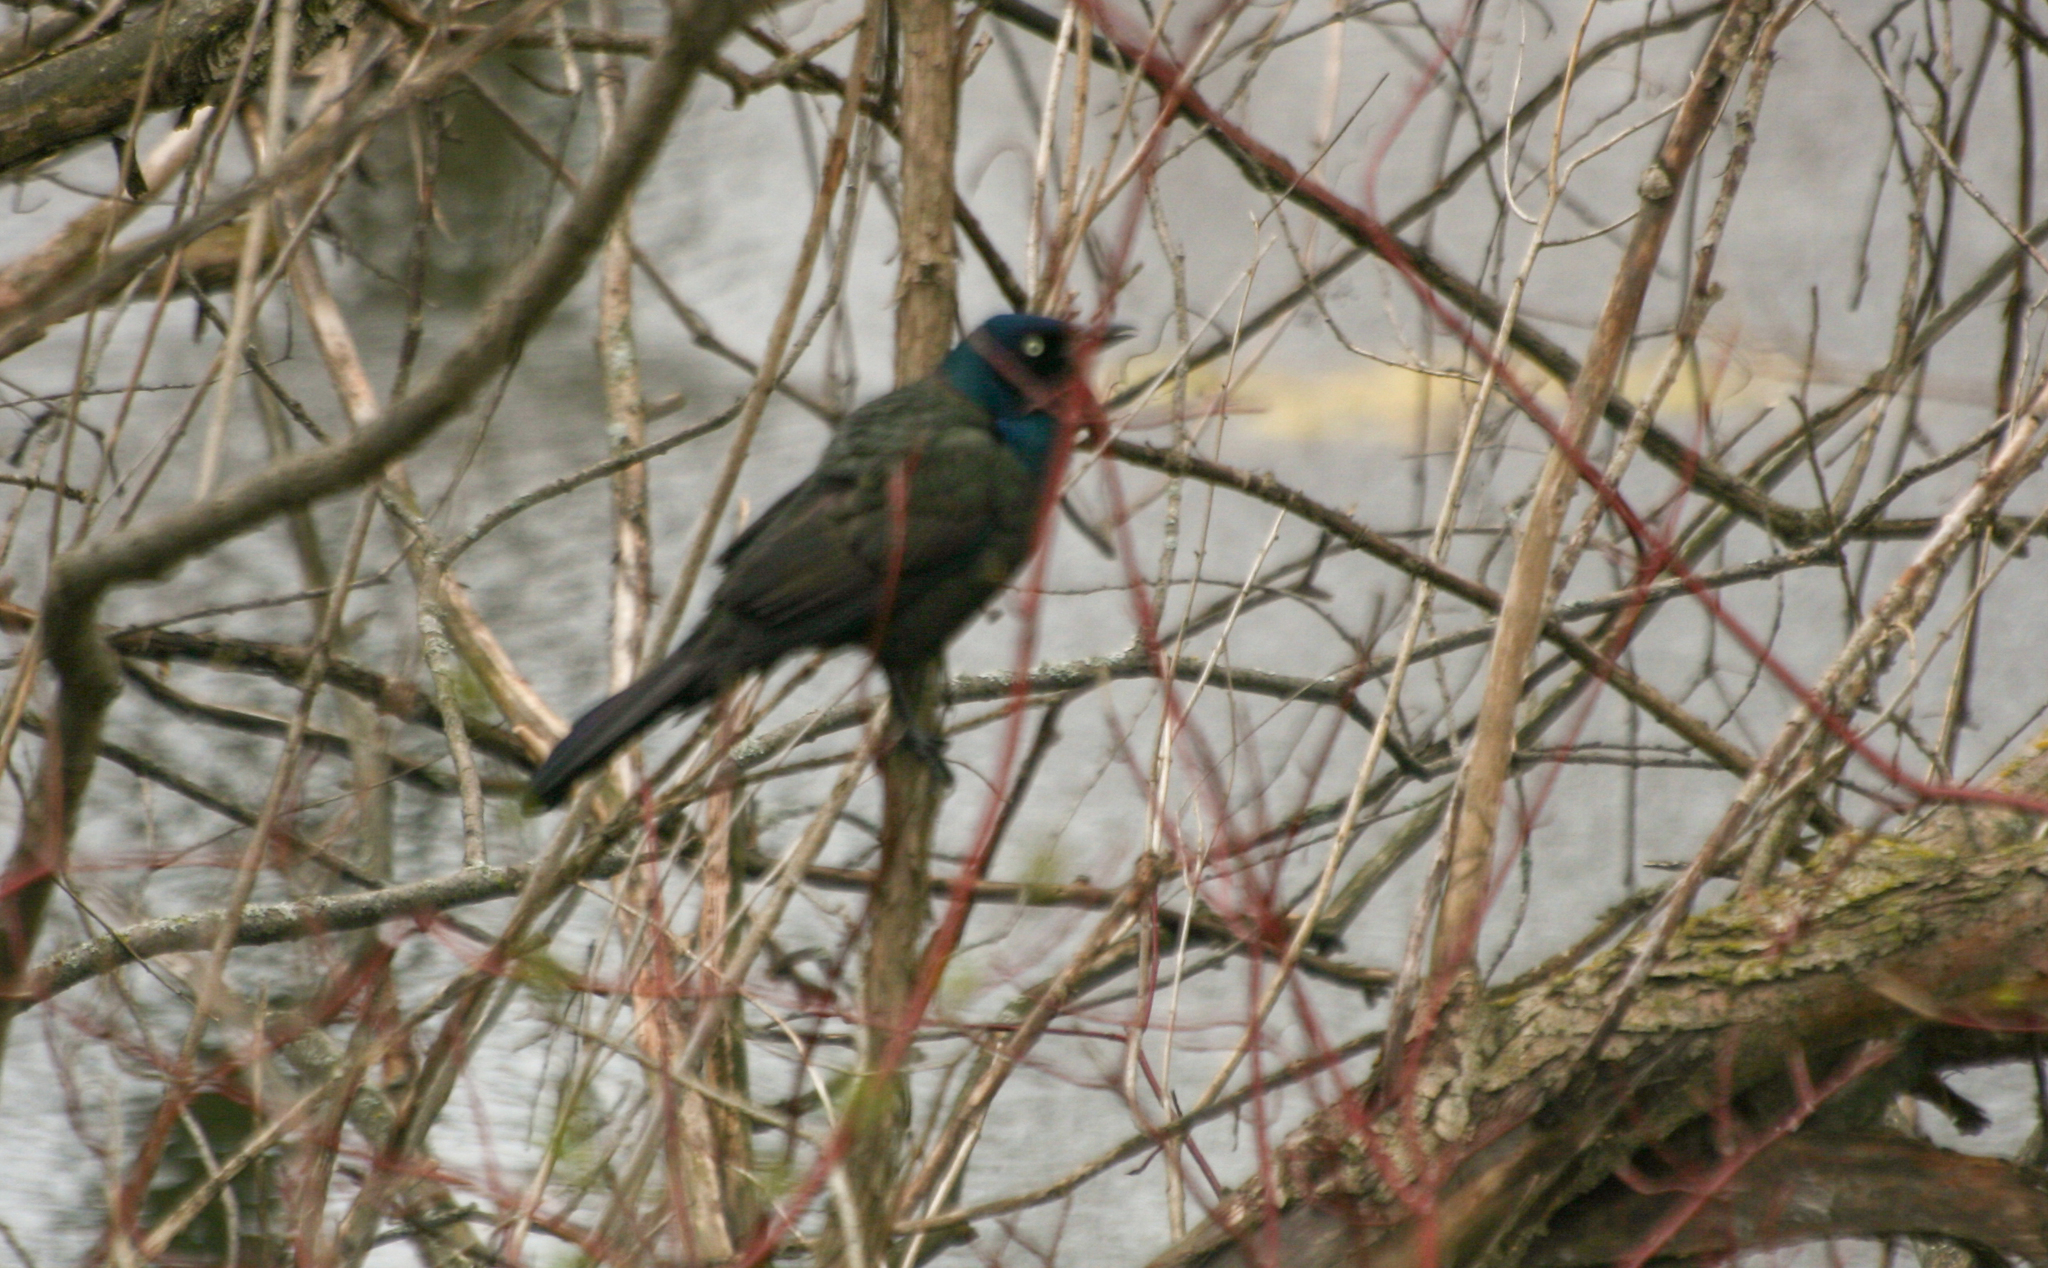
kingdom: Animalia
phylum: Chordata
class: Aves
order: Passeriformes
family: Icteridae
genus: Quiscalus
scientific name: Quiscalus quiscula
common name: Common grackle
